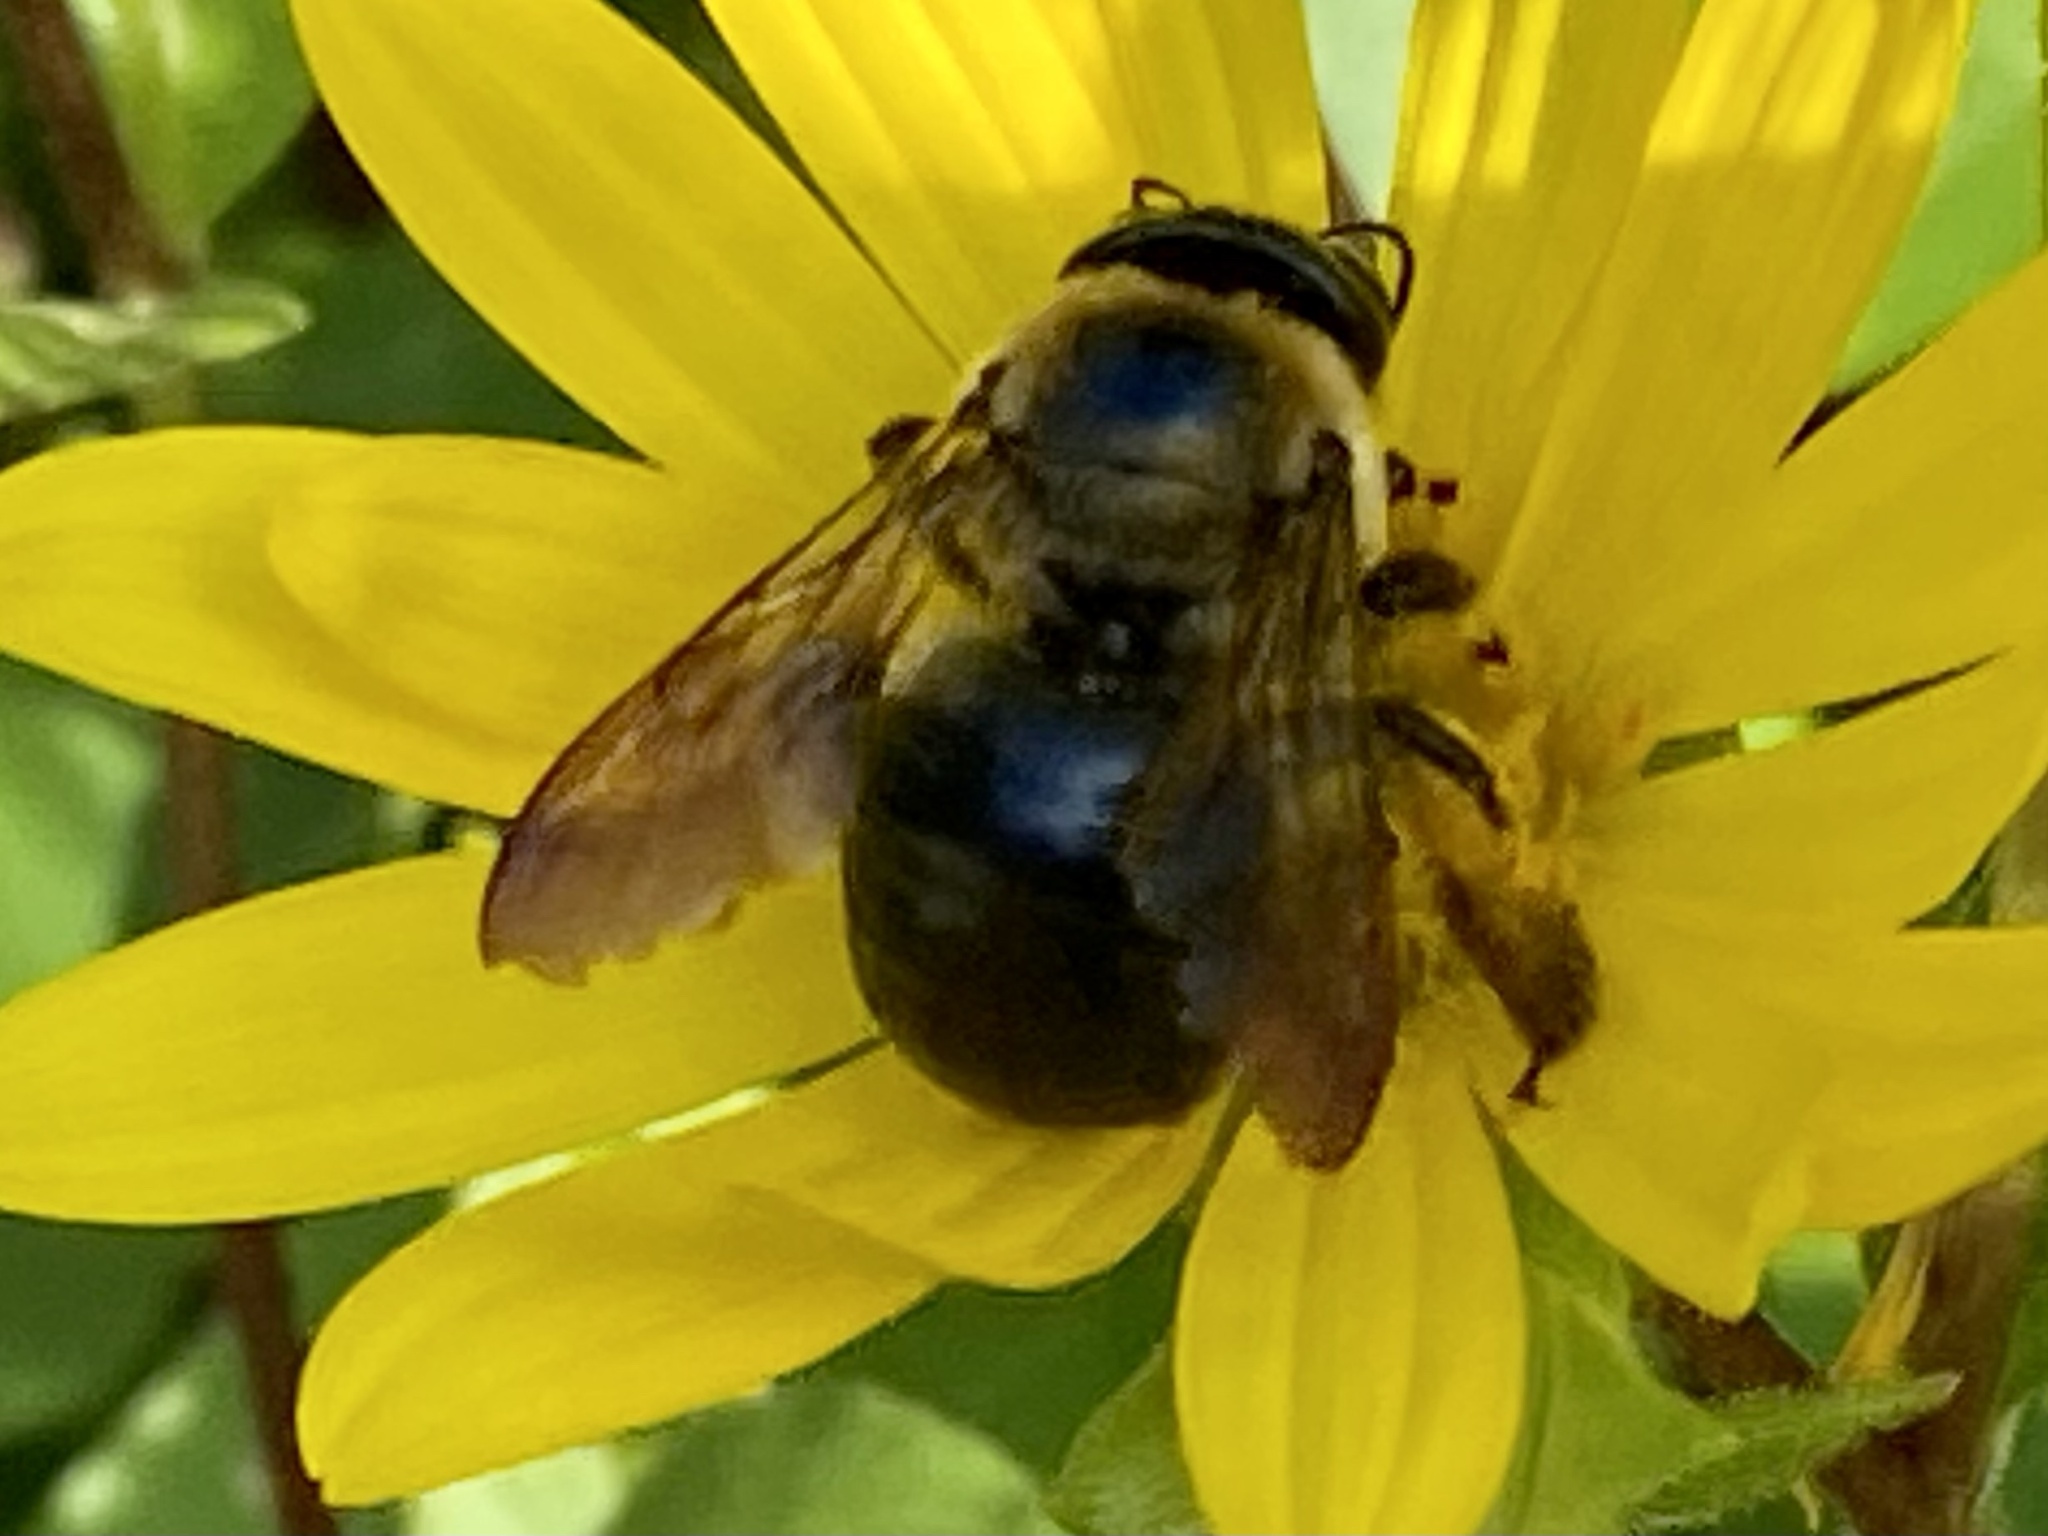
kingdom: Animalia
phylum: Arthropoda
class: Insecta
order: Hymenoptera
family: Apidae
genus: Xylocopa
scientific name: Xylocopa virginica
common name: Carpenter bee
